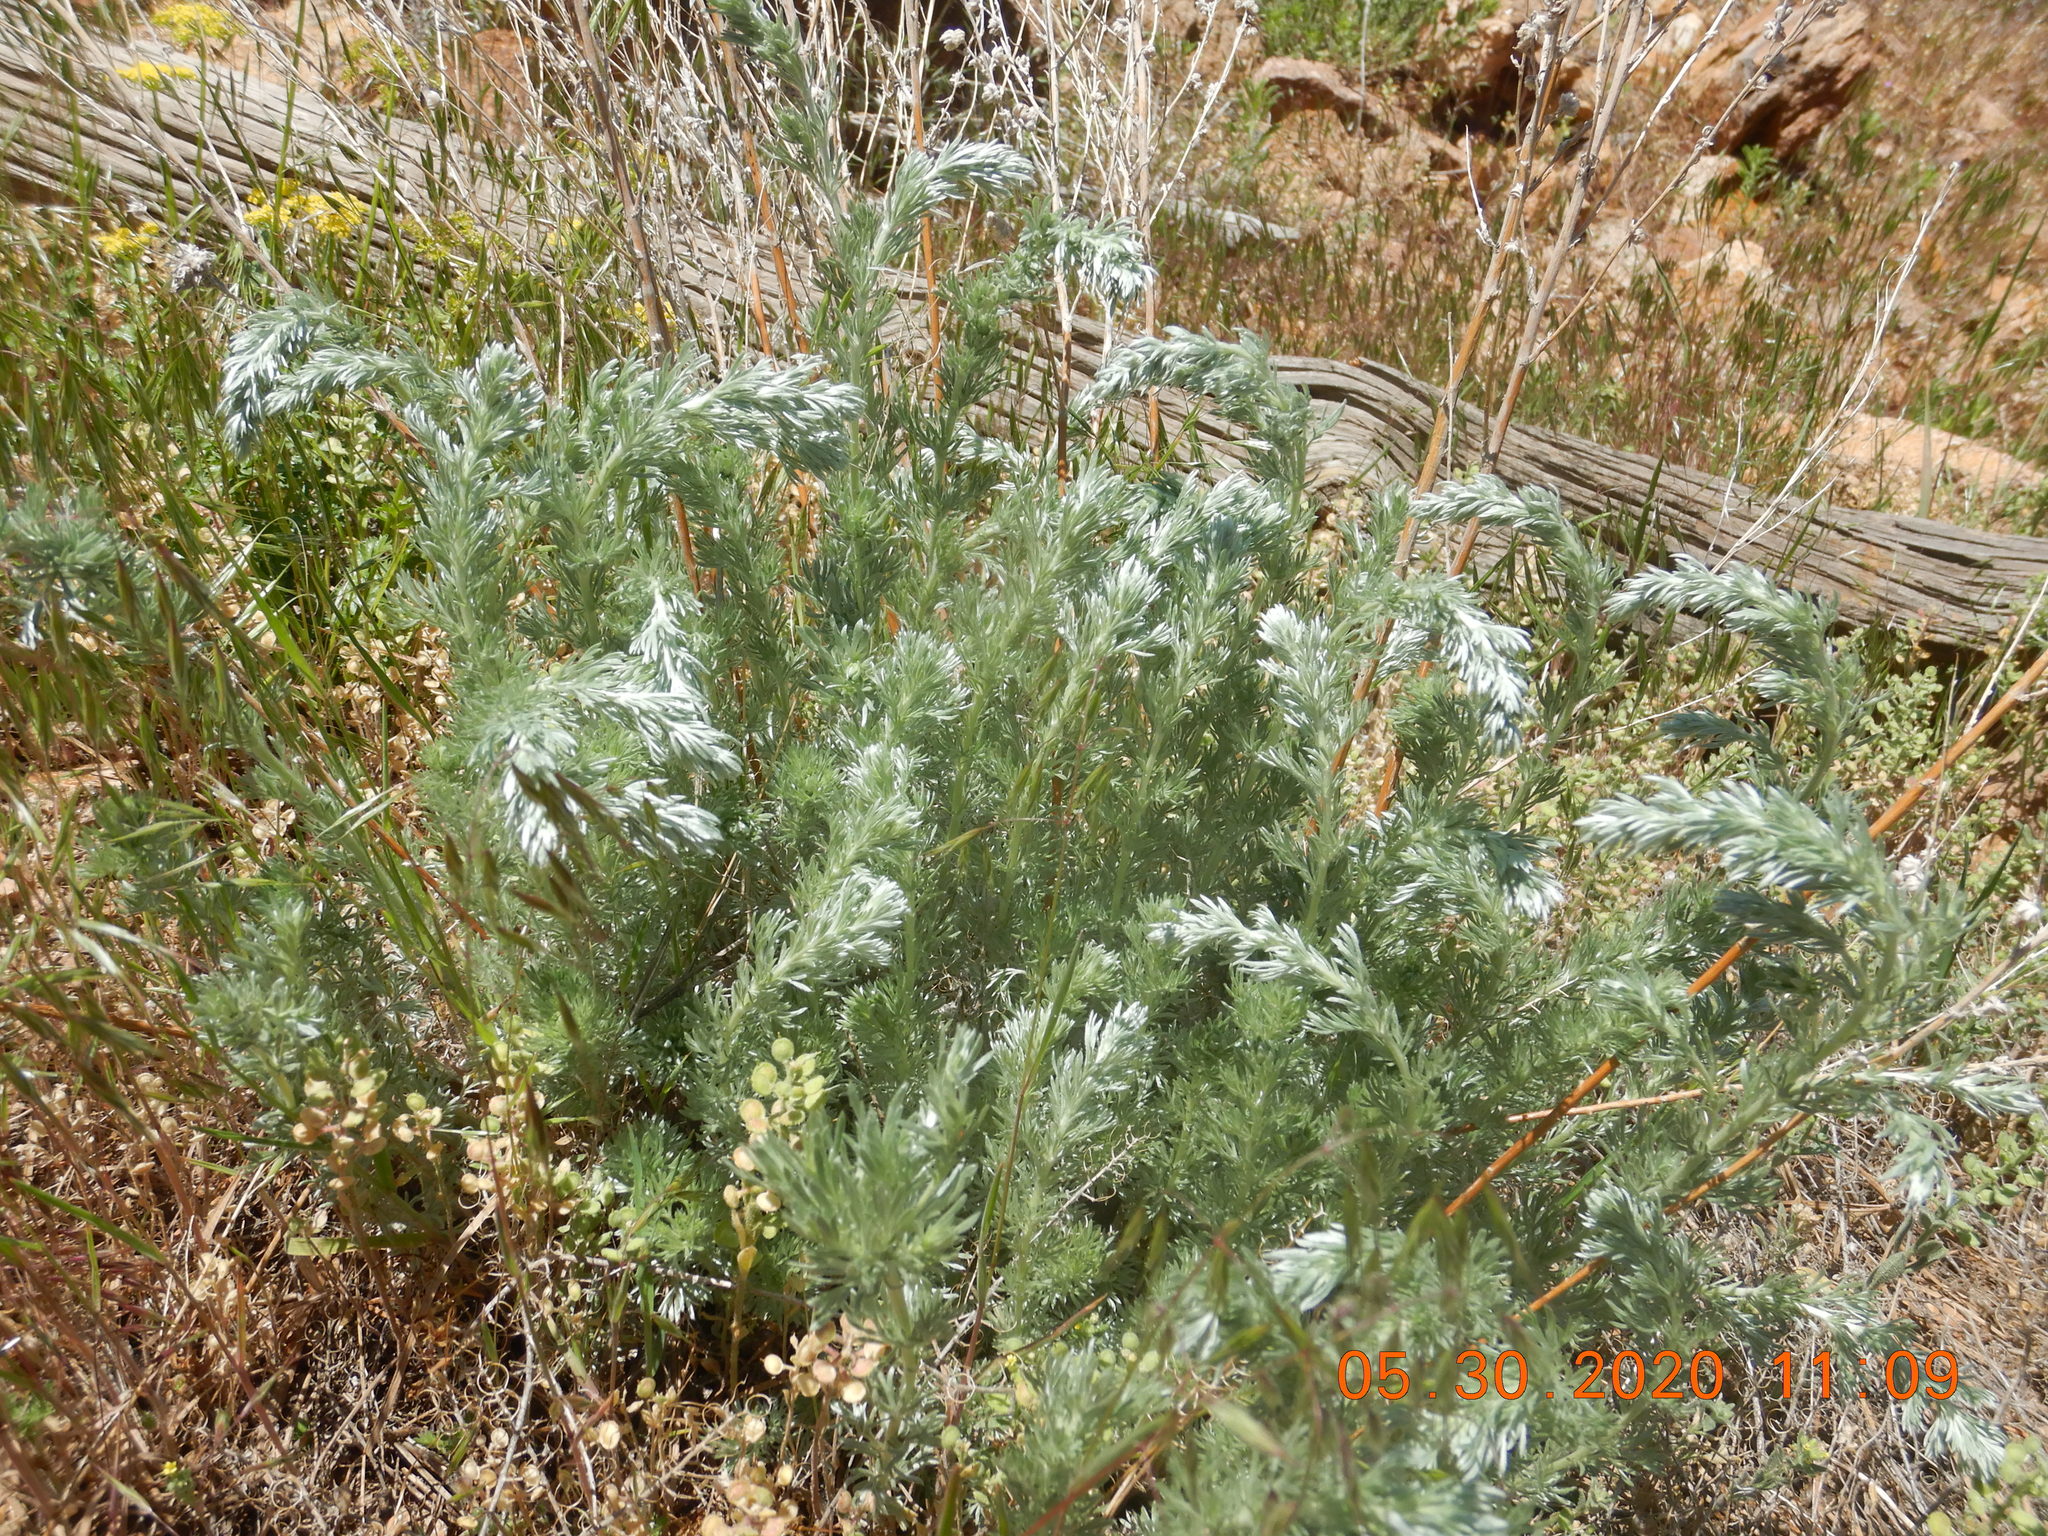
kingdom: Plantae
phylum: Tracheophyta
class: Magnoliopsida
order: Asterales
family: Asteraceae
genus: Artemisia
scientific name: Artemisia frigida
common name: Prairie sagewort
